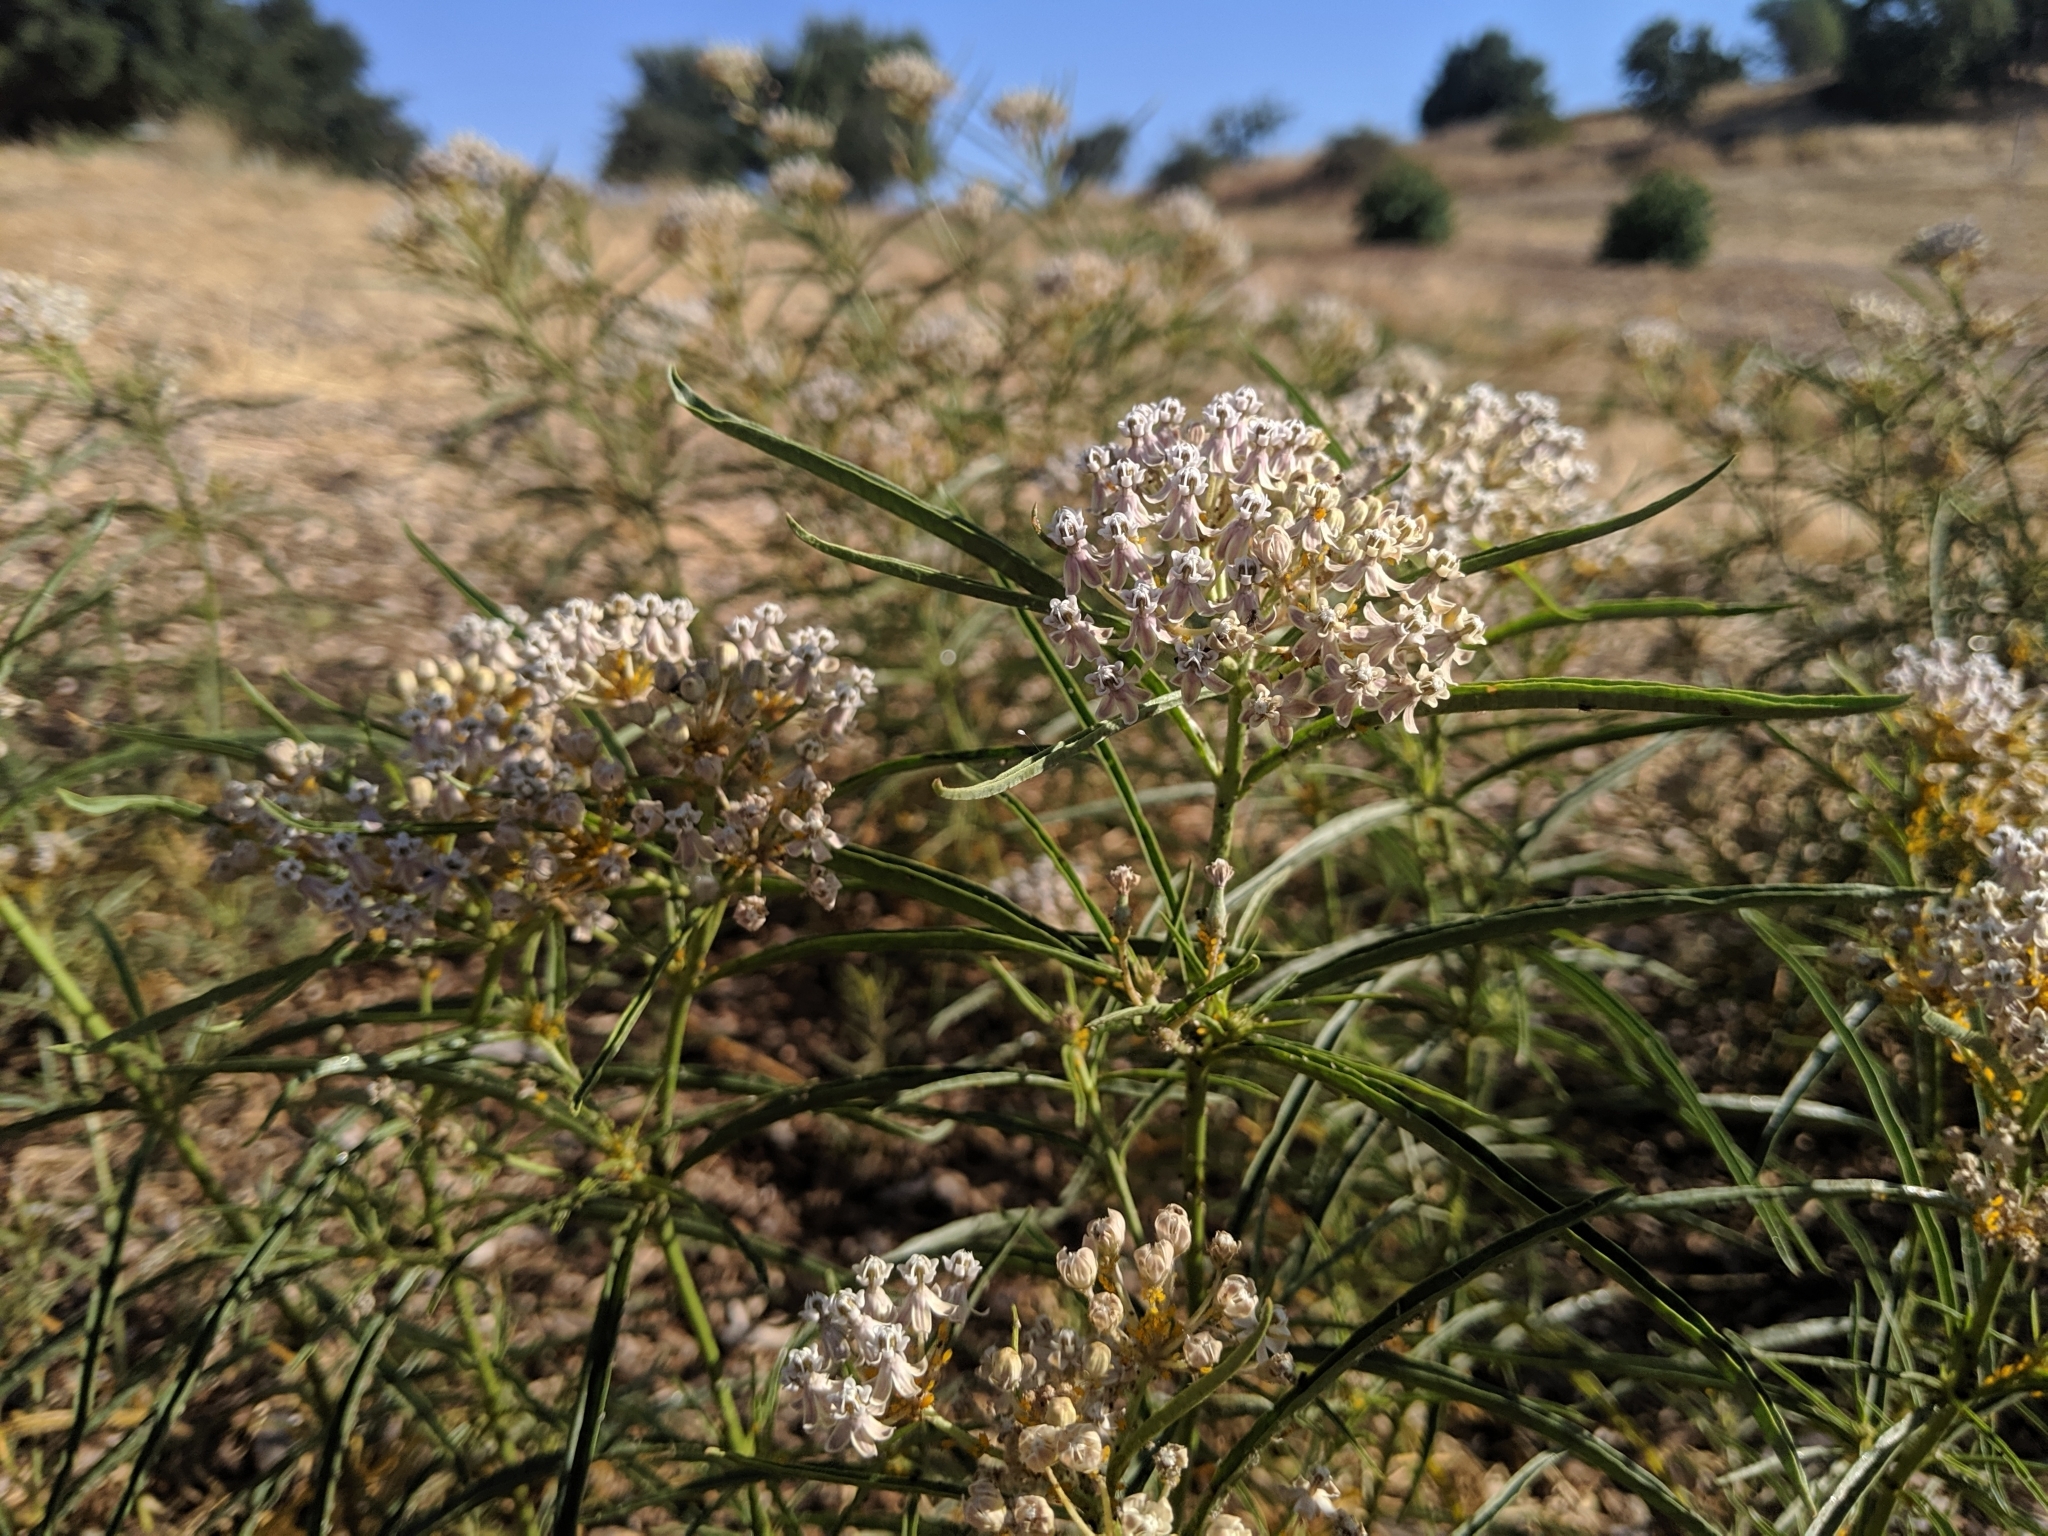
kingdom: Plantae
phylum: Tracheophyta
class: Magnoliopsida
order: Gentianales
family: Apocynaceae
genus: Asclepias
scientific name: Asclepias fascicularis
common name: Mexican milkweed
